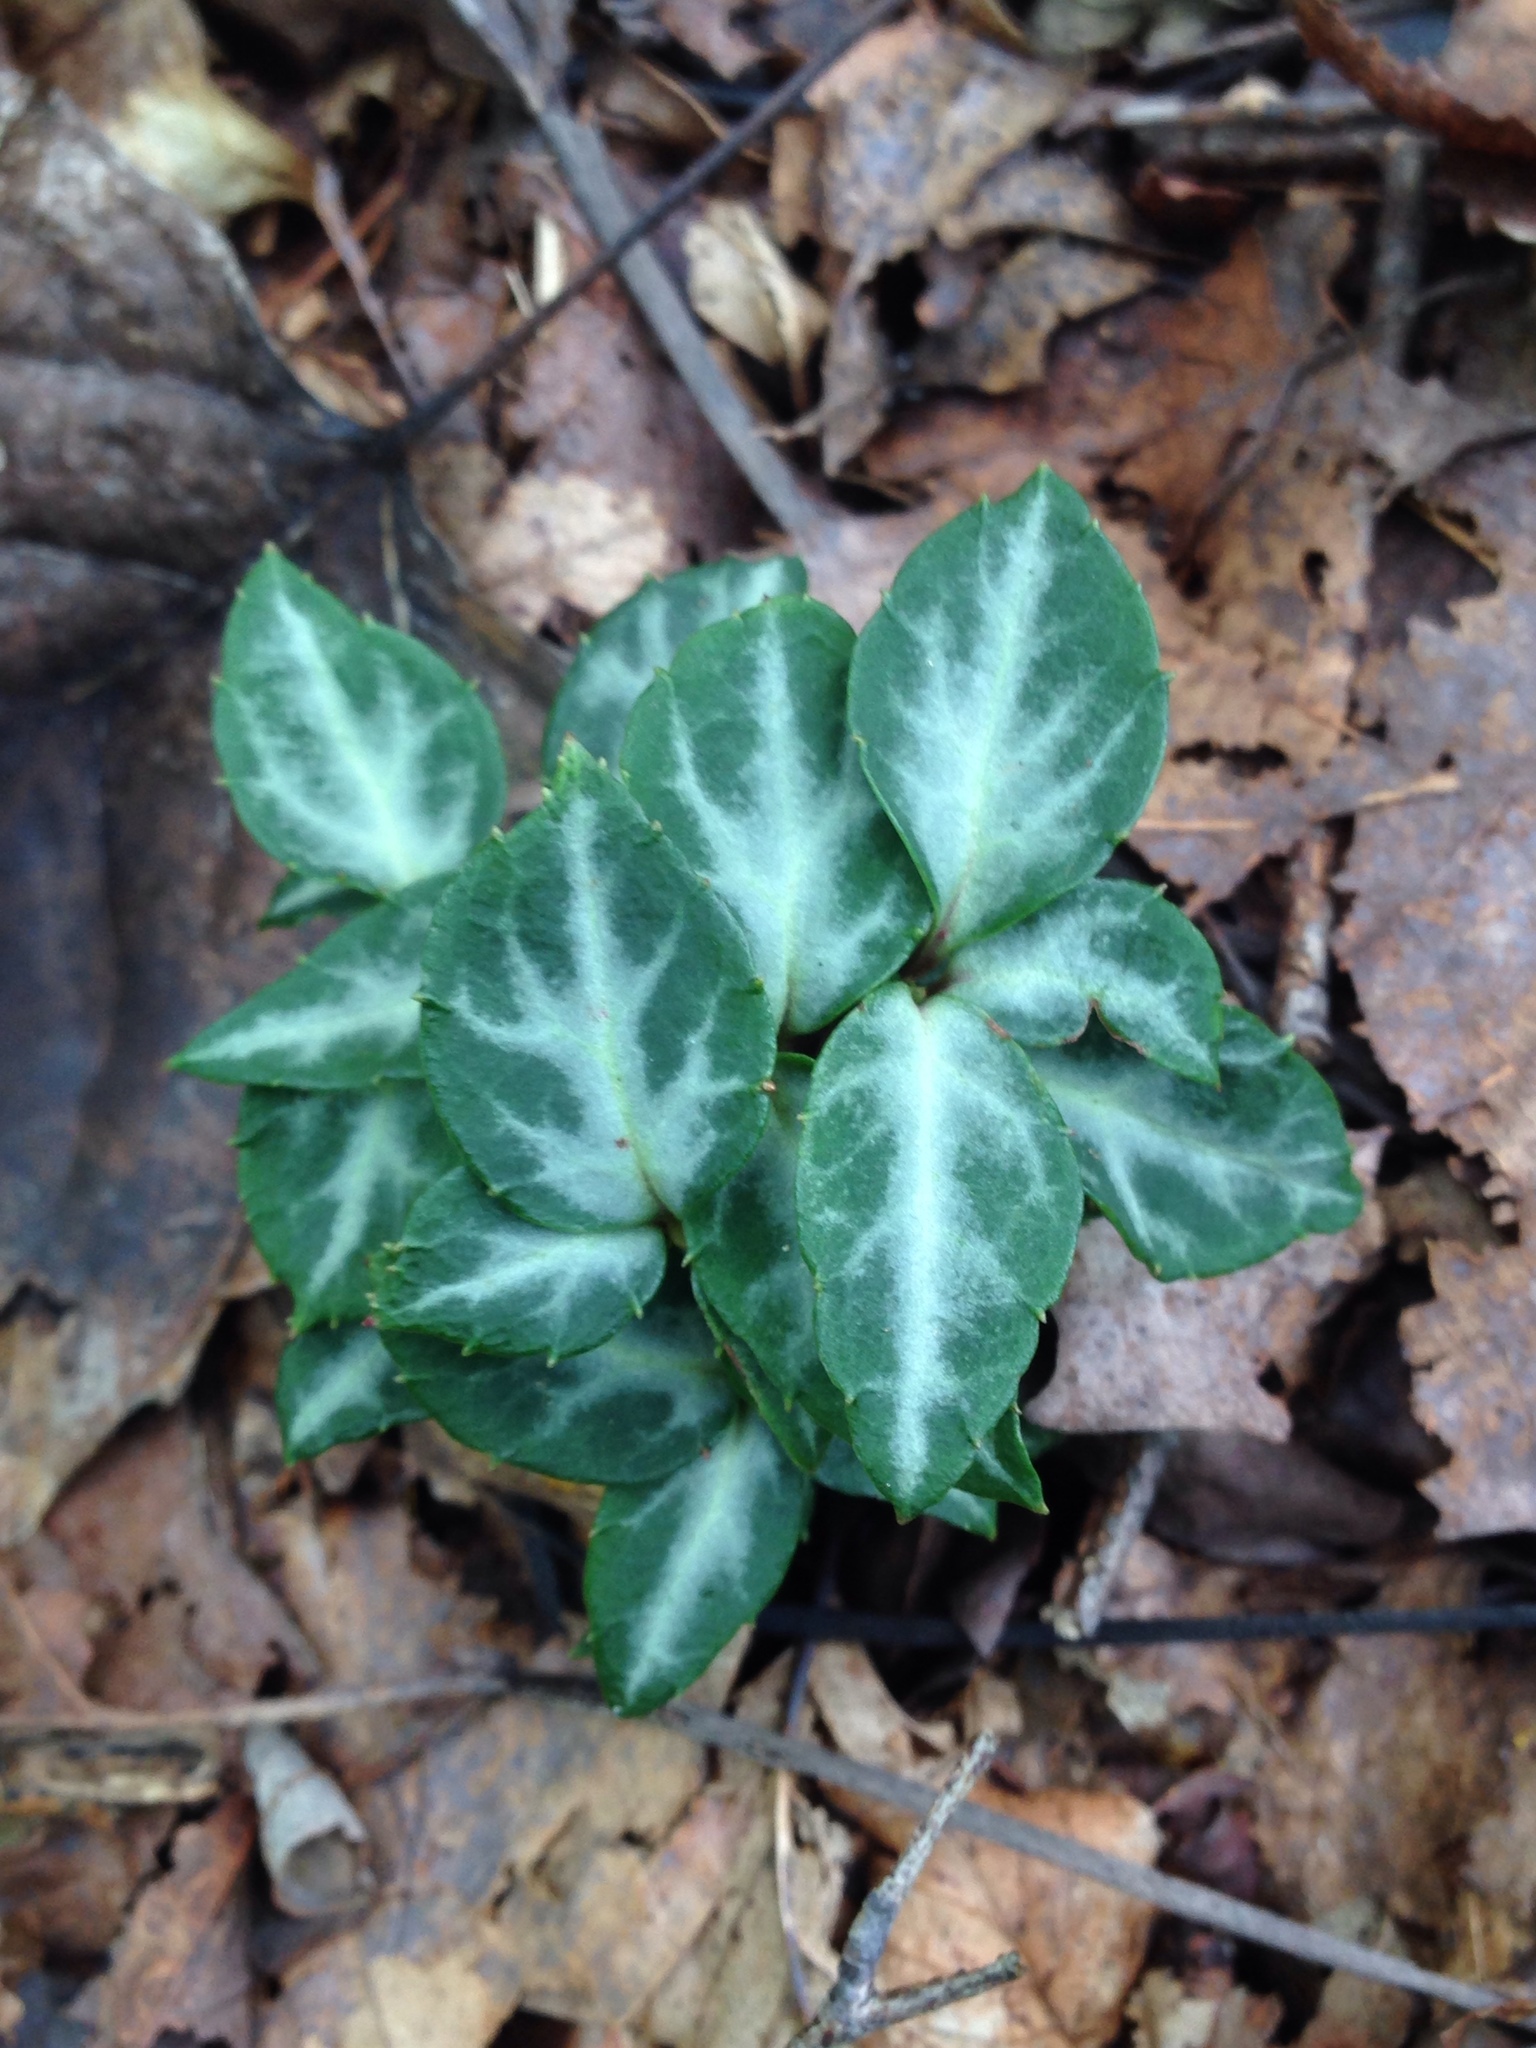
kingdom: Plantae
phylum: Tracheophyta
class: Magnoliopsida
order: Ericales
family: Ericaceae
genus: Chimaphila
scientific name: Chimaphila maculata
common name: Spotted pipsissewa
